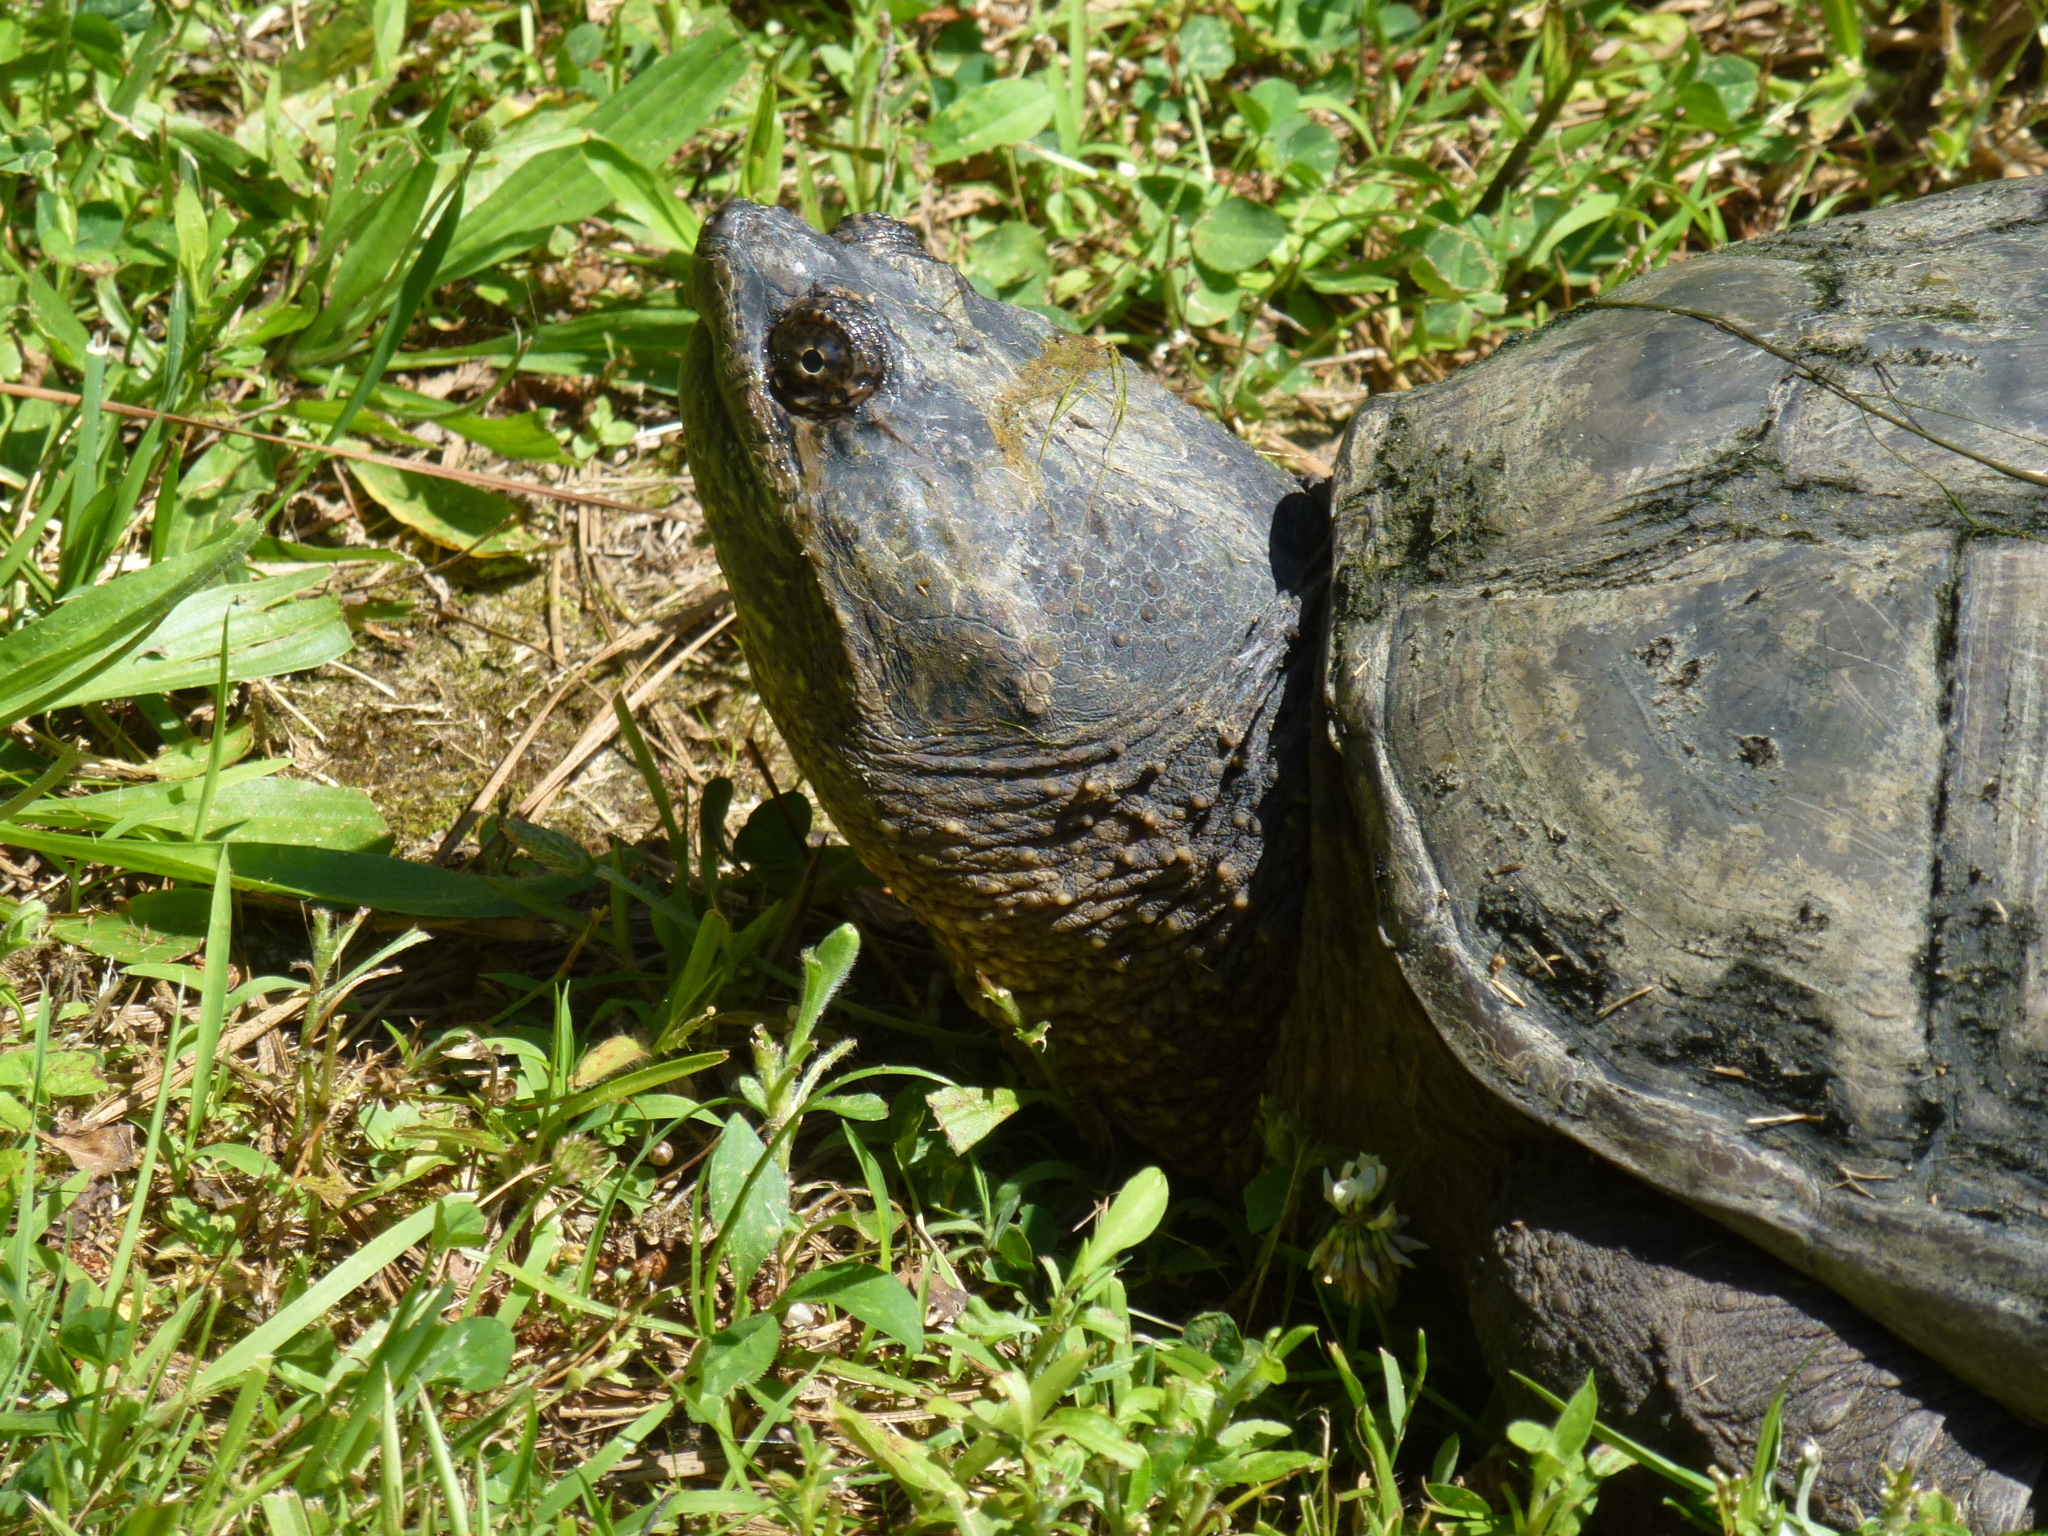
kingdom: Animalia
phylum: Chordata
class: Testudines
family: Chelydridae
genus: Chelydra
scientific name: Chelydra serpentina
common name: Common snapping turtle
